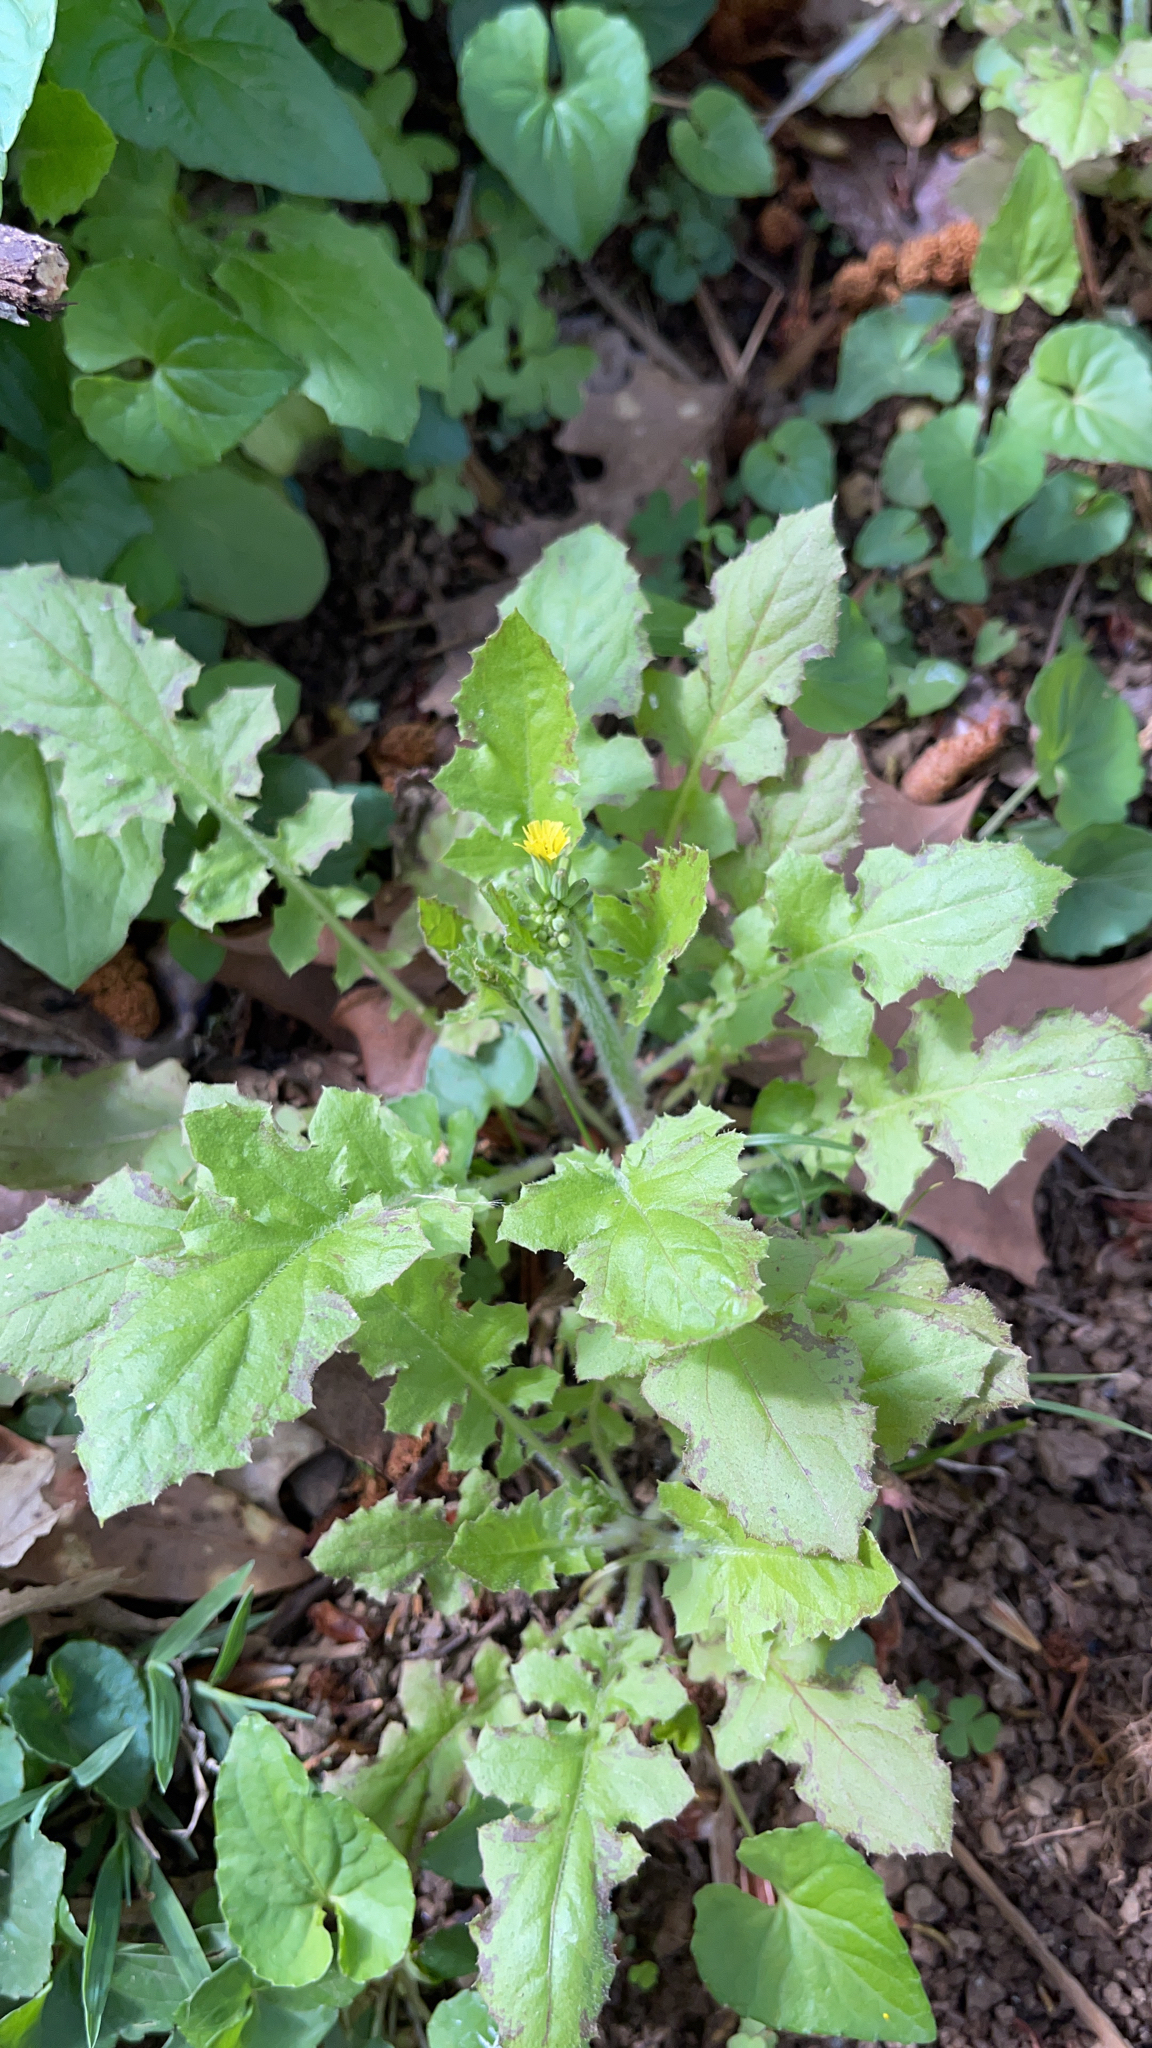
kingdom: Plantae
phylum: Tracheophyta
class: Magnoliopsida
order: Asterales
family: Asteraceae
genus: Youngia
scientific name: Youngia japonica
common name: Oriental false hawksbeard
